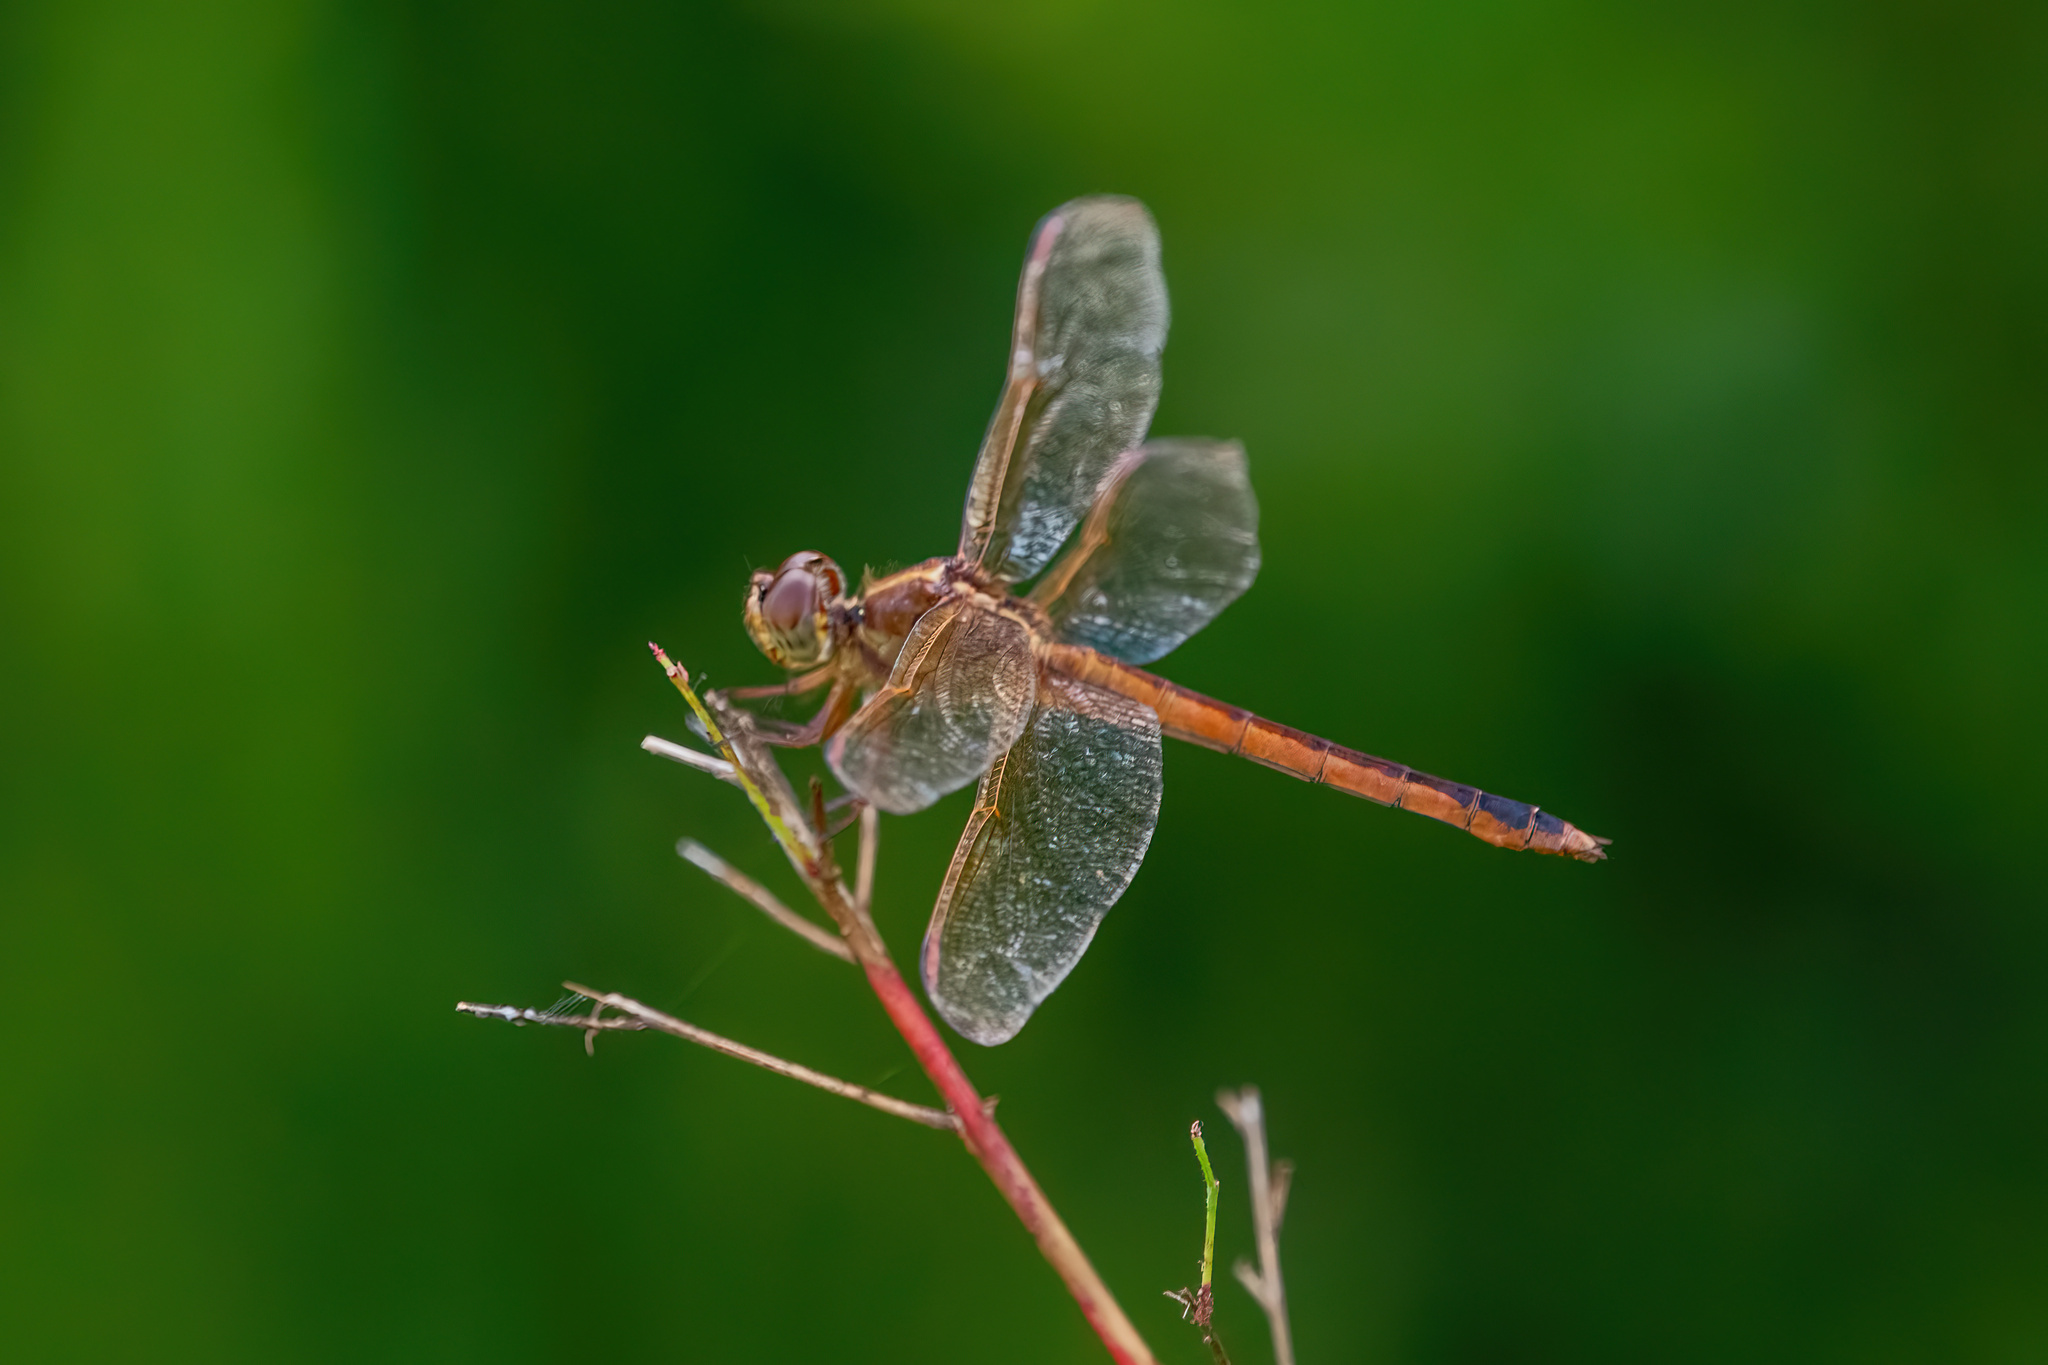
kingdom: Animalia
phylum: Arthropoda
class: Insecta
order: Odonata
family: Libellulidae
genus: Libellula
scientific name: Libellula needhami
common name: Needham's skimmer
